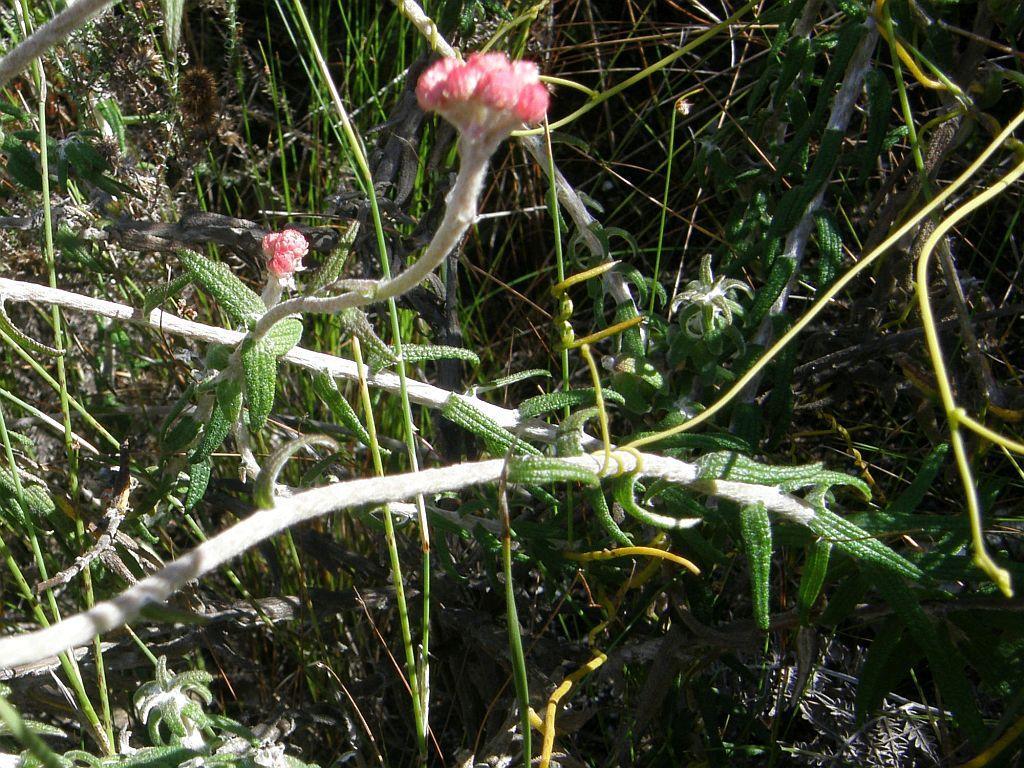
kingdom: Plantae
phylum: Tracheophyta
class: Magnoliopsida
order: Asterales
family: Asteraceae
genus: Helichrysum
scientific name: Helichrysum felinum
